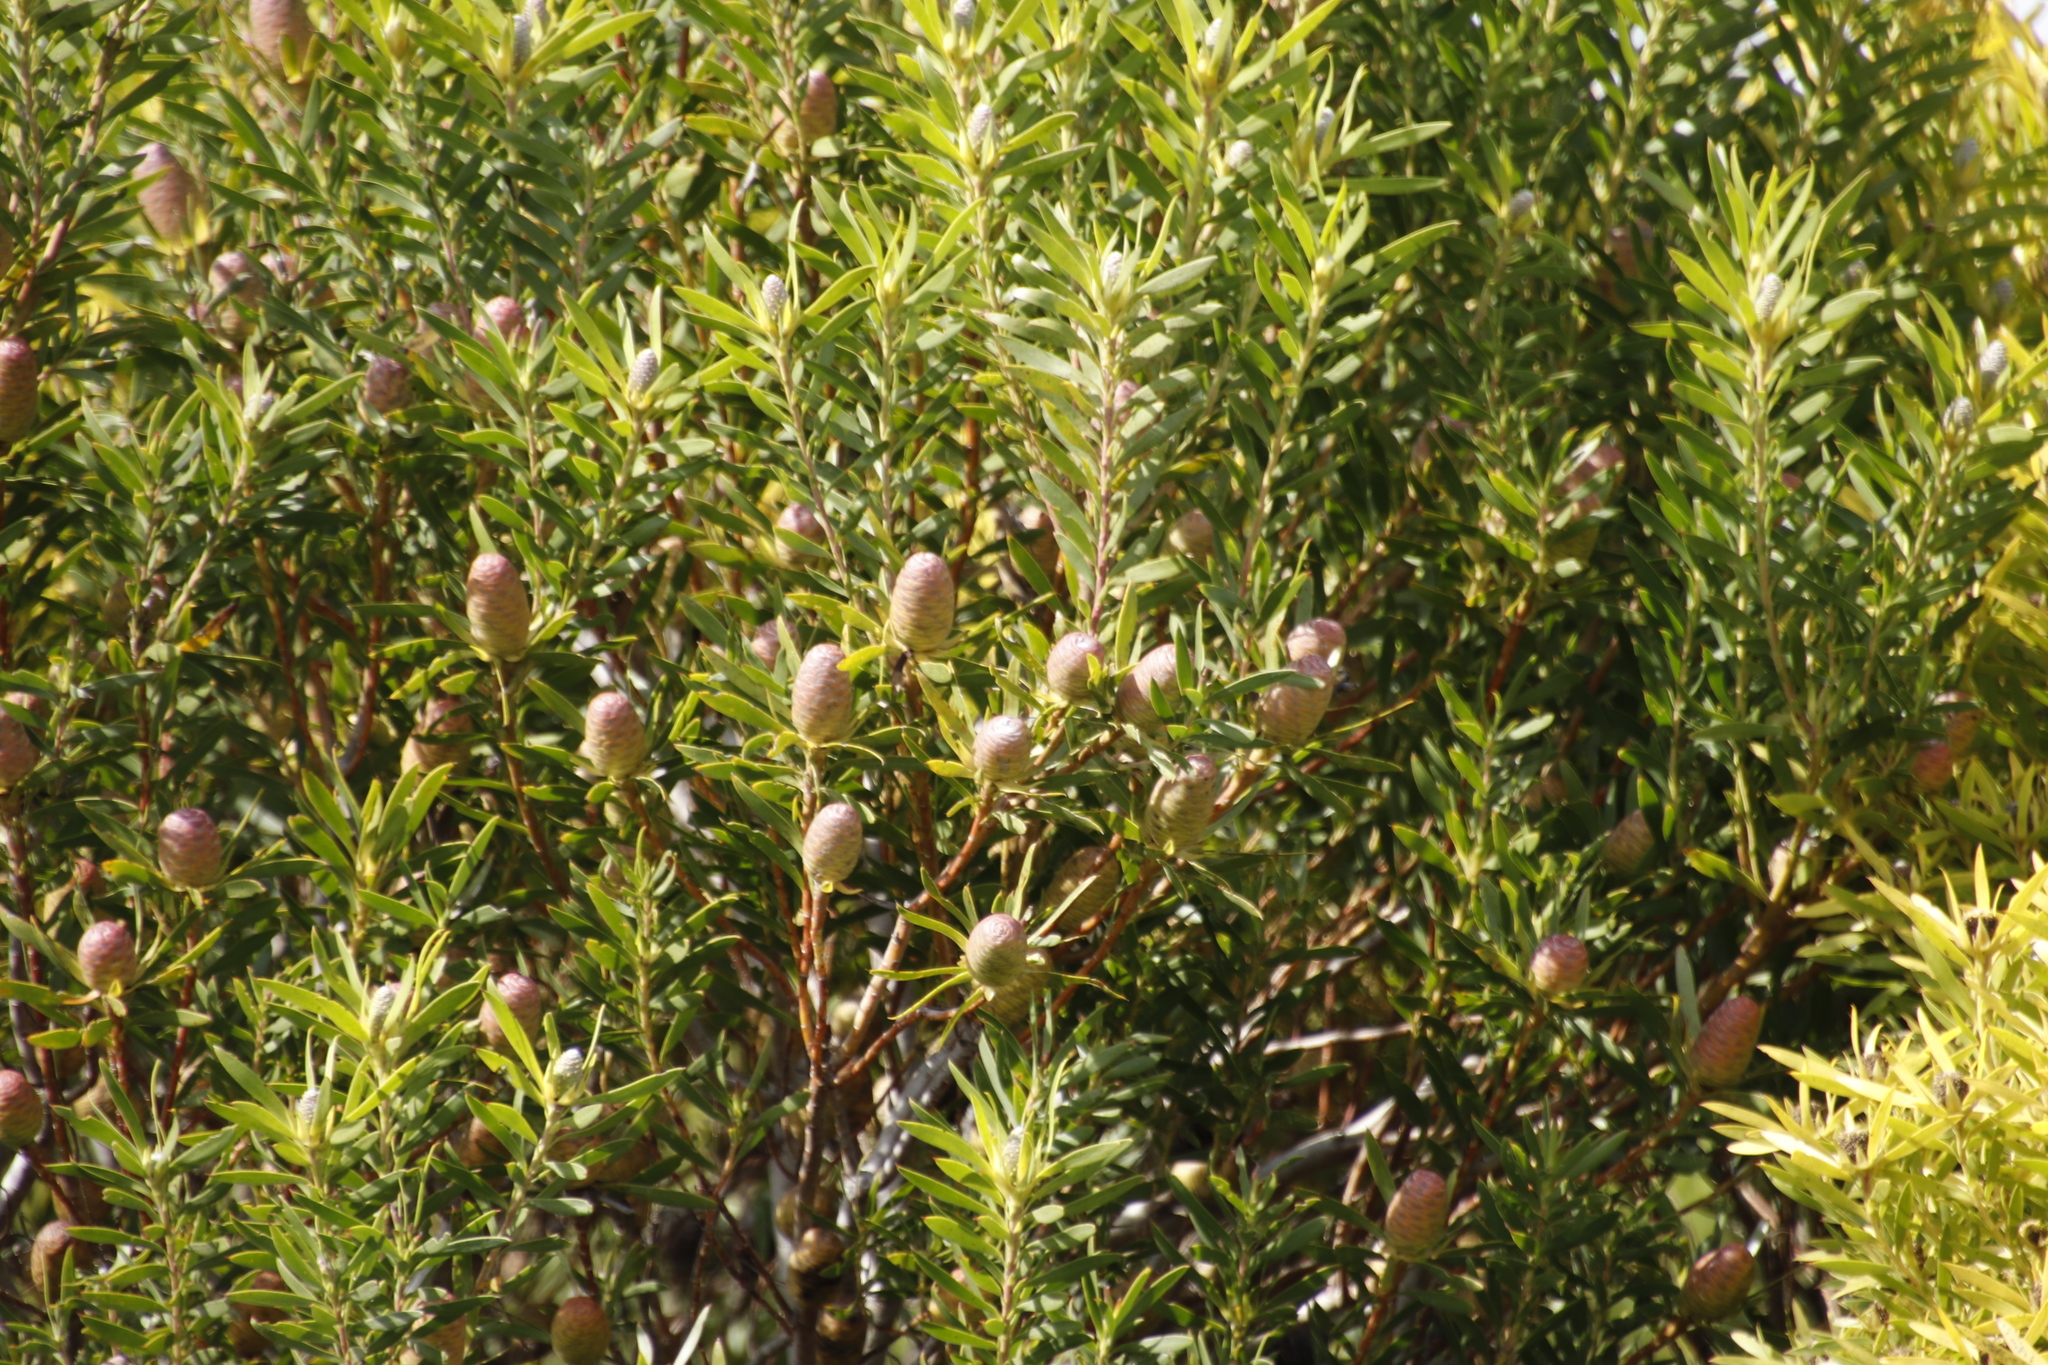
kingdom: Plantae
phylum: Tracheophyta
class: Magnoliopsida
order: Proteales
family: Proteaceae
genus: Leucadendron
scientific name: Leucadendron meridianum
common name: Limestone conebush
